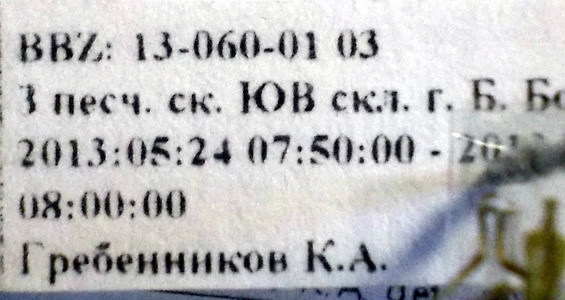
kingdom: Animalia
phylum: Arthropoda
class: Insecta
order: Hemiptera
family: Rhopalidae
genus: Chorosoma
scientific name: Chorosoma gracile
